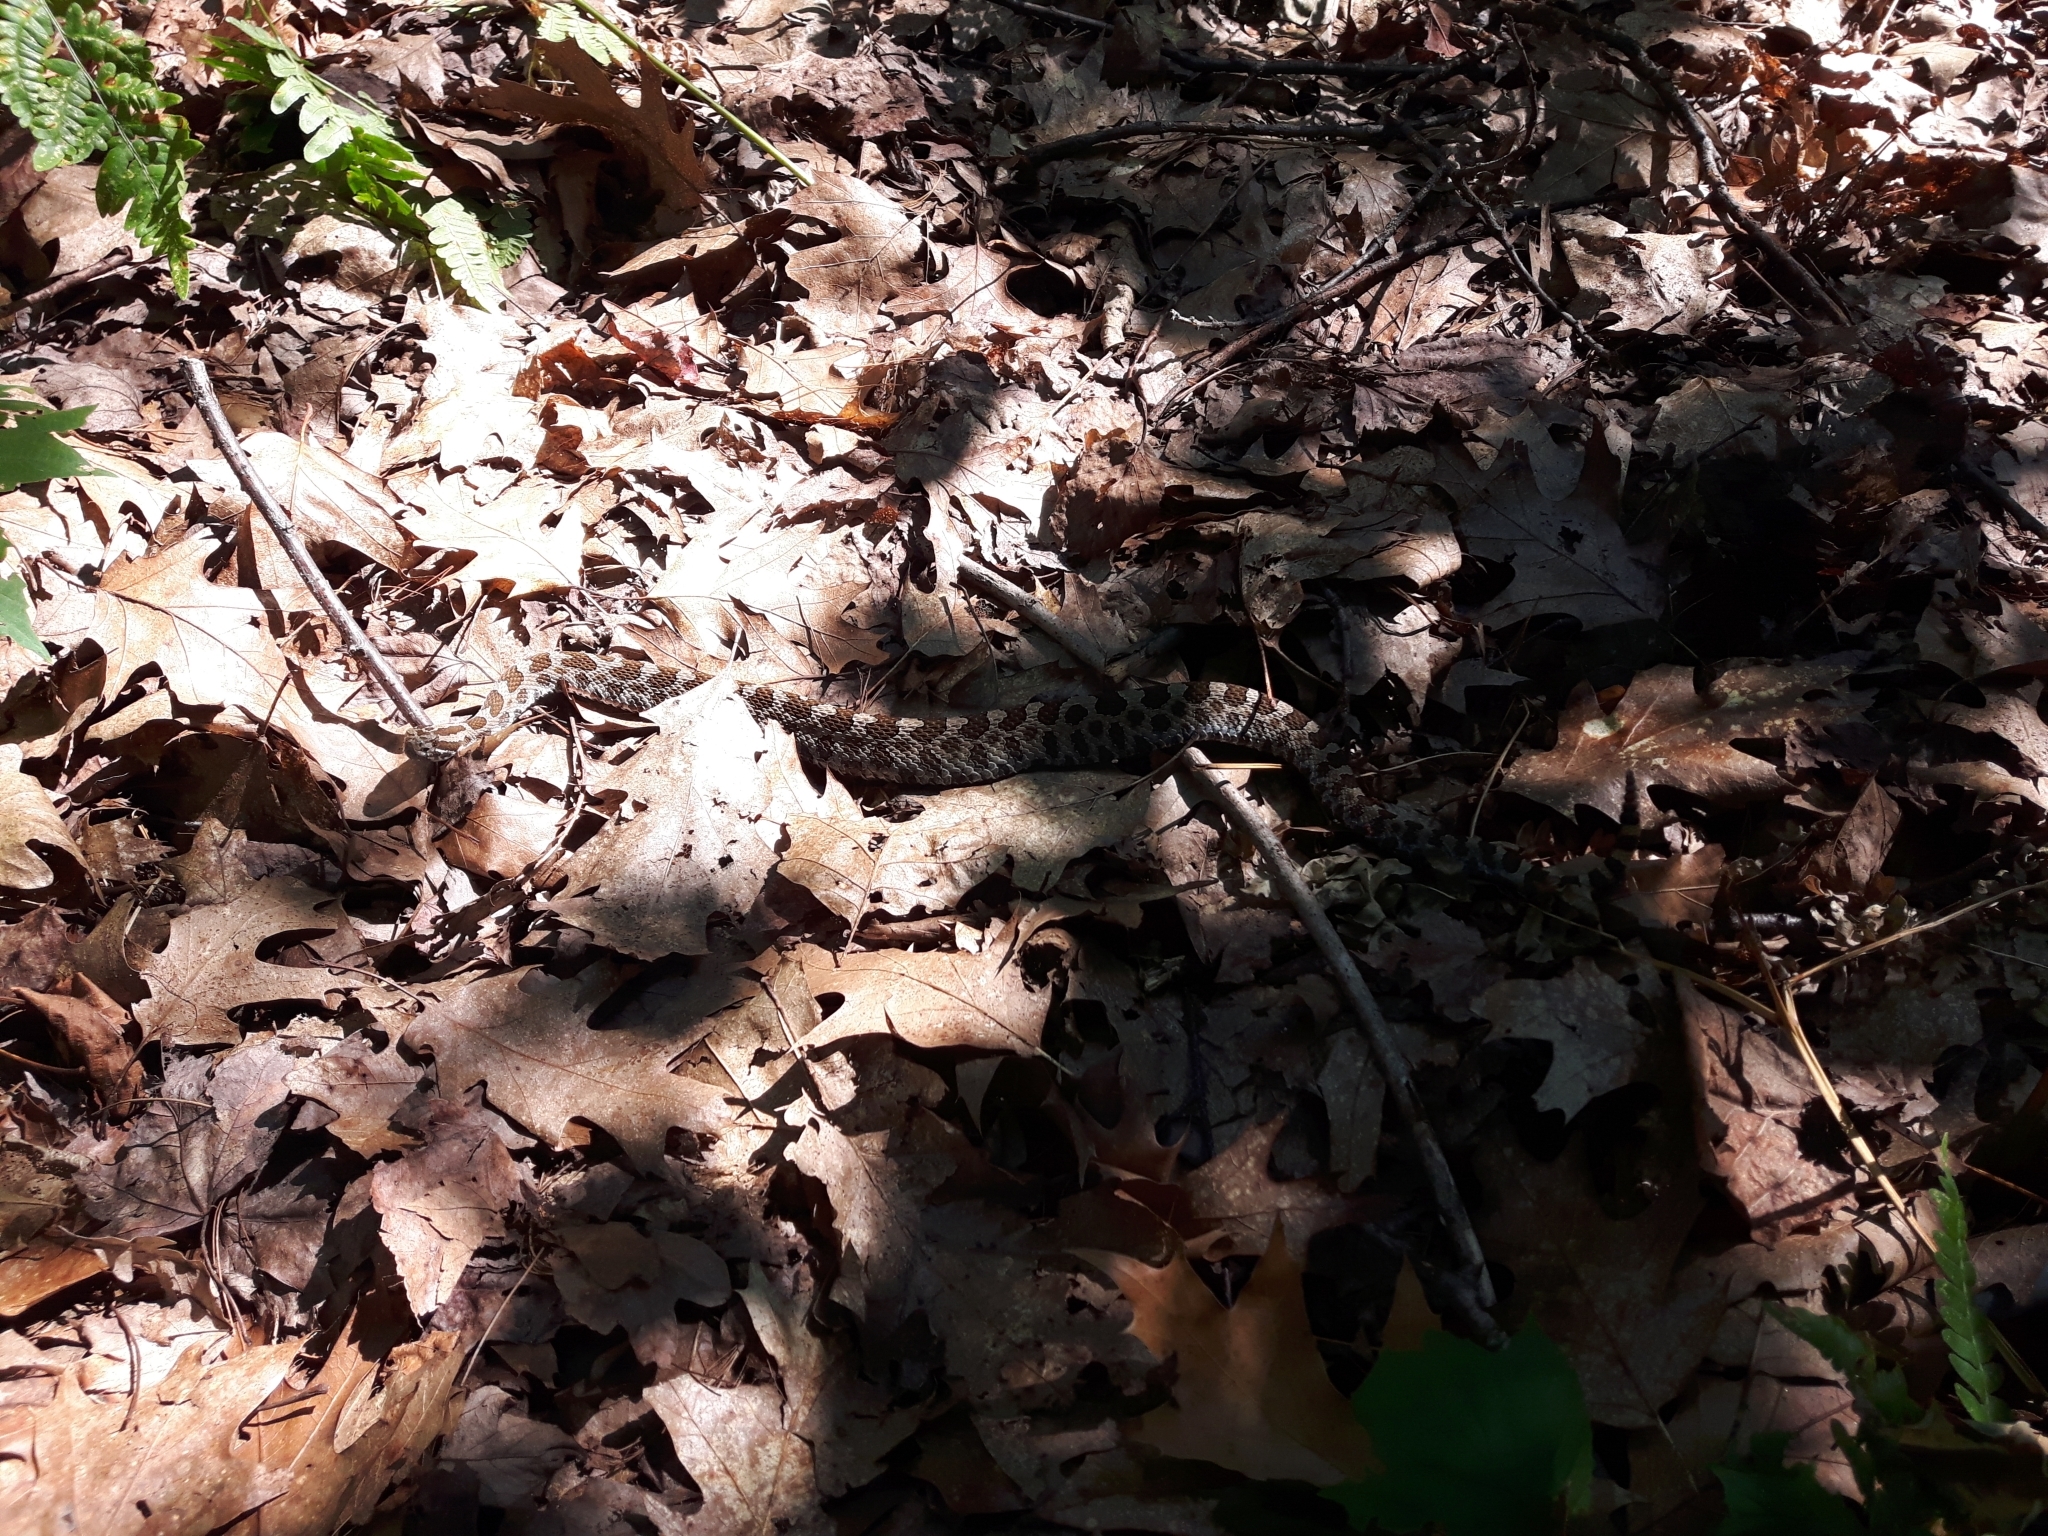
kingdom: Animalia
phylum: Chordata
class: Squamata
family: Viperidae
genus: Sistrurus
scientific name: Sistrurus catenatus
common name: Massasauga
